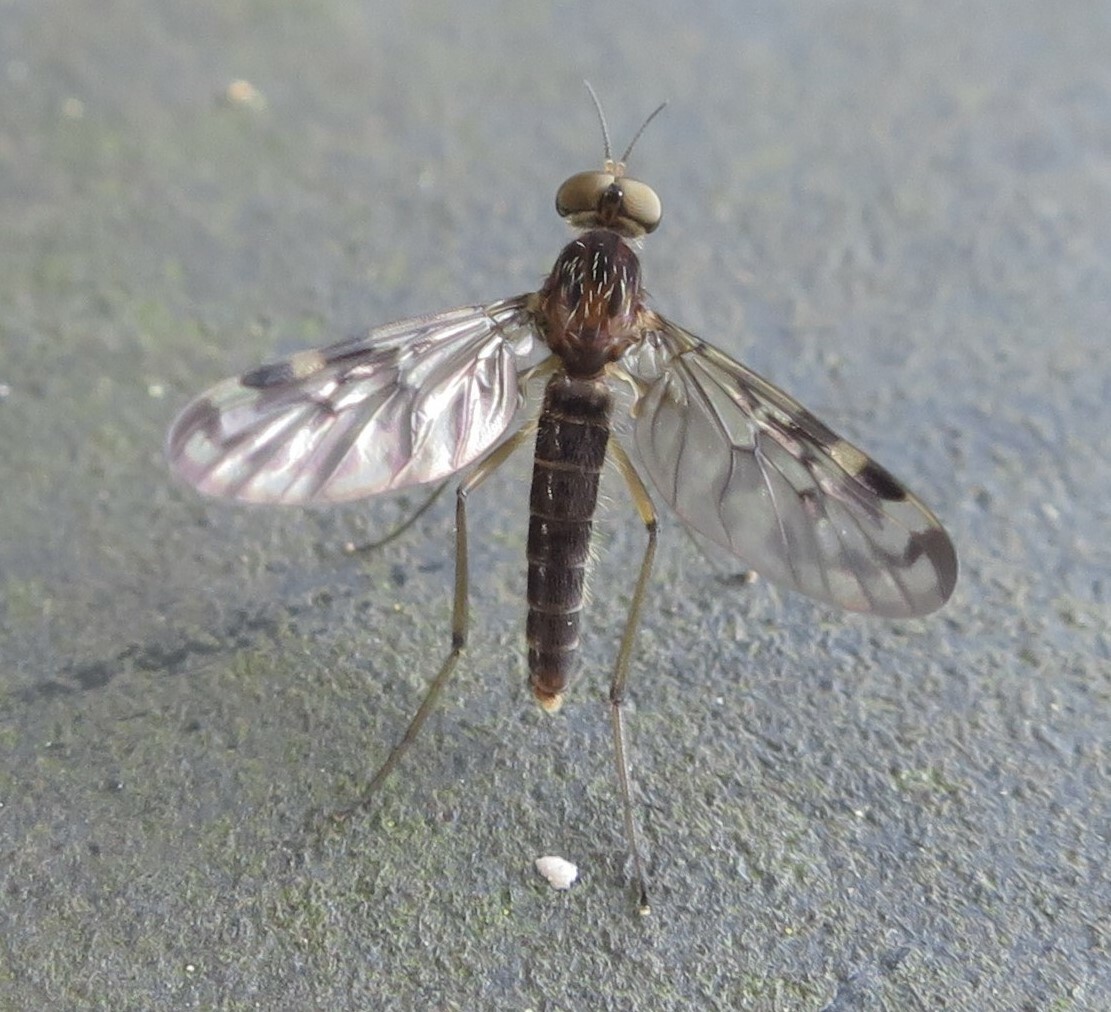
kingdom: Animalia
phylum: Arthropoda
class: Insecta
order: Diptera
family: Anisopodidae
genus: Sylvicola
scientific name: Sylvicola dubius
